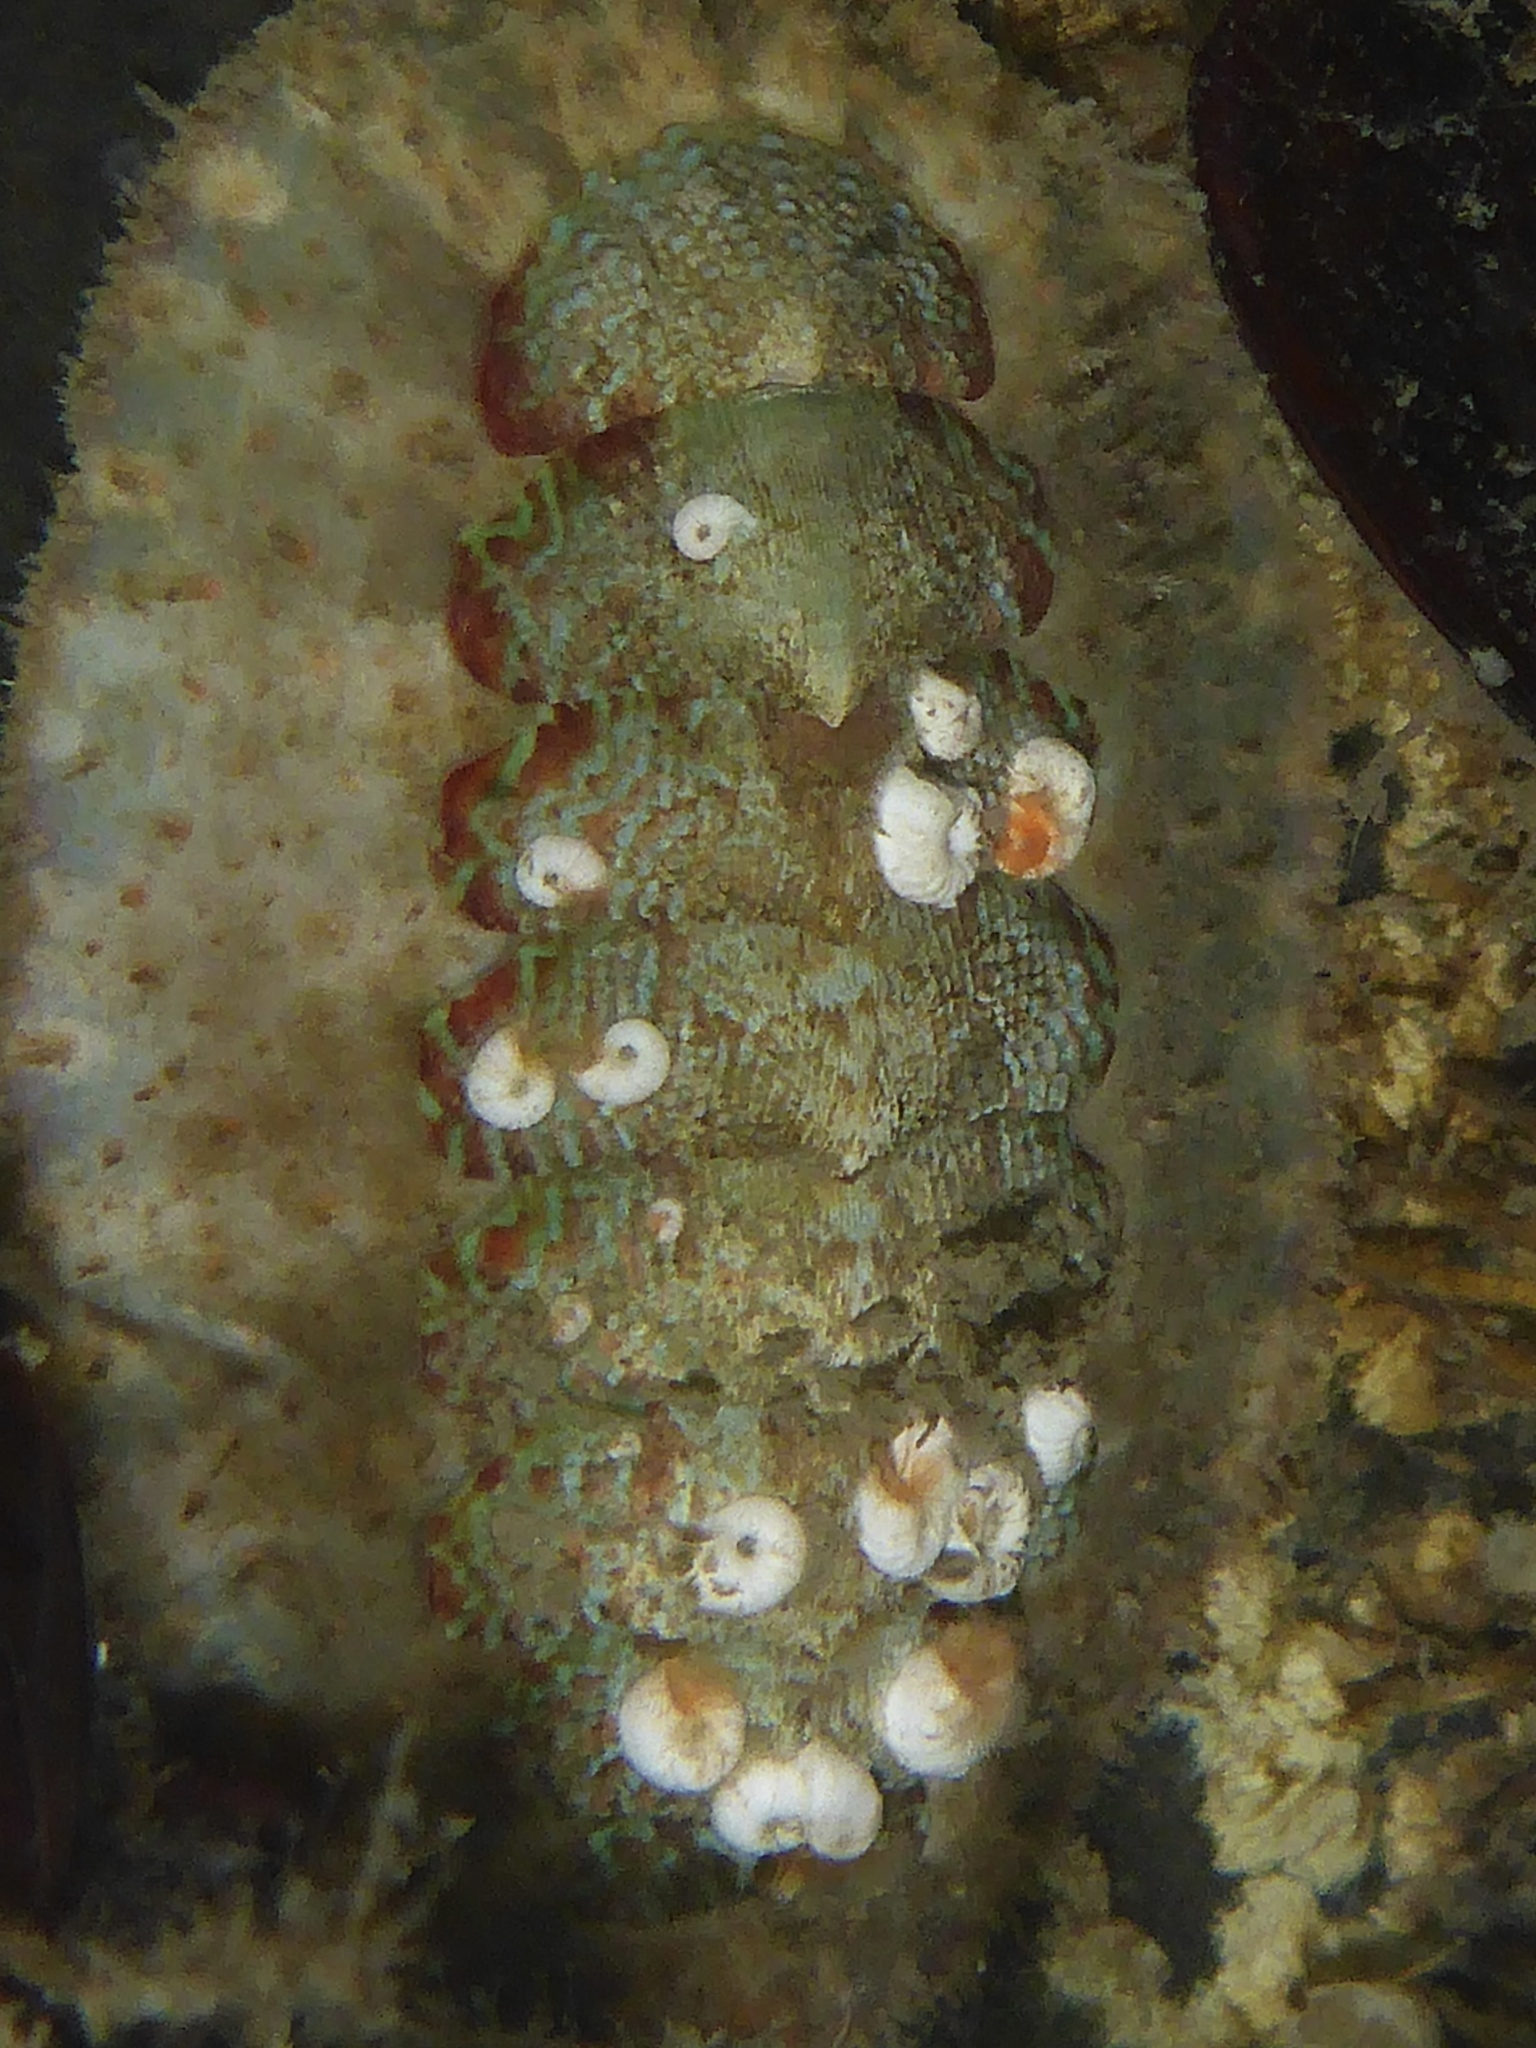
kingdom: Animalia
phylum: Mollusca
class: Polyplacophora
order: Chitonida
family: Mopaliidae
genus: Mopalia
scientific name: Mopalia spectabilis
